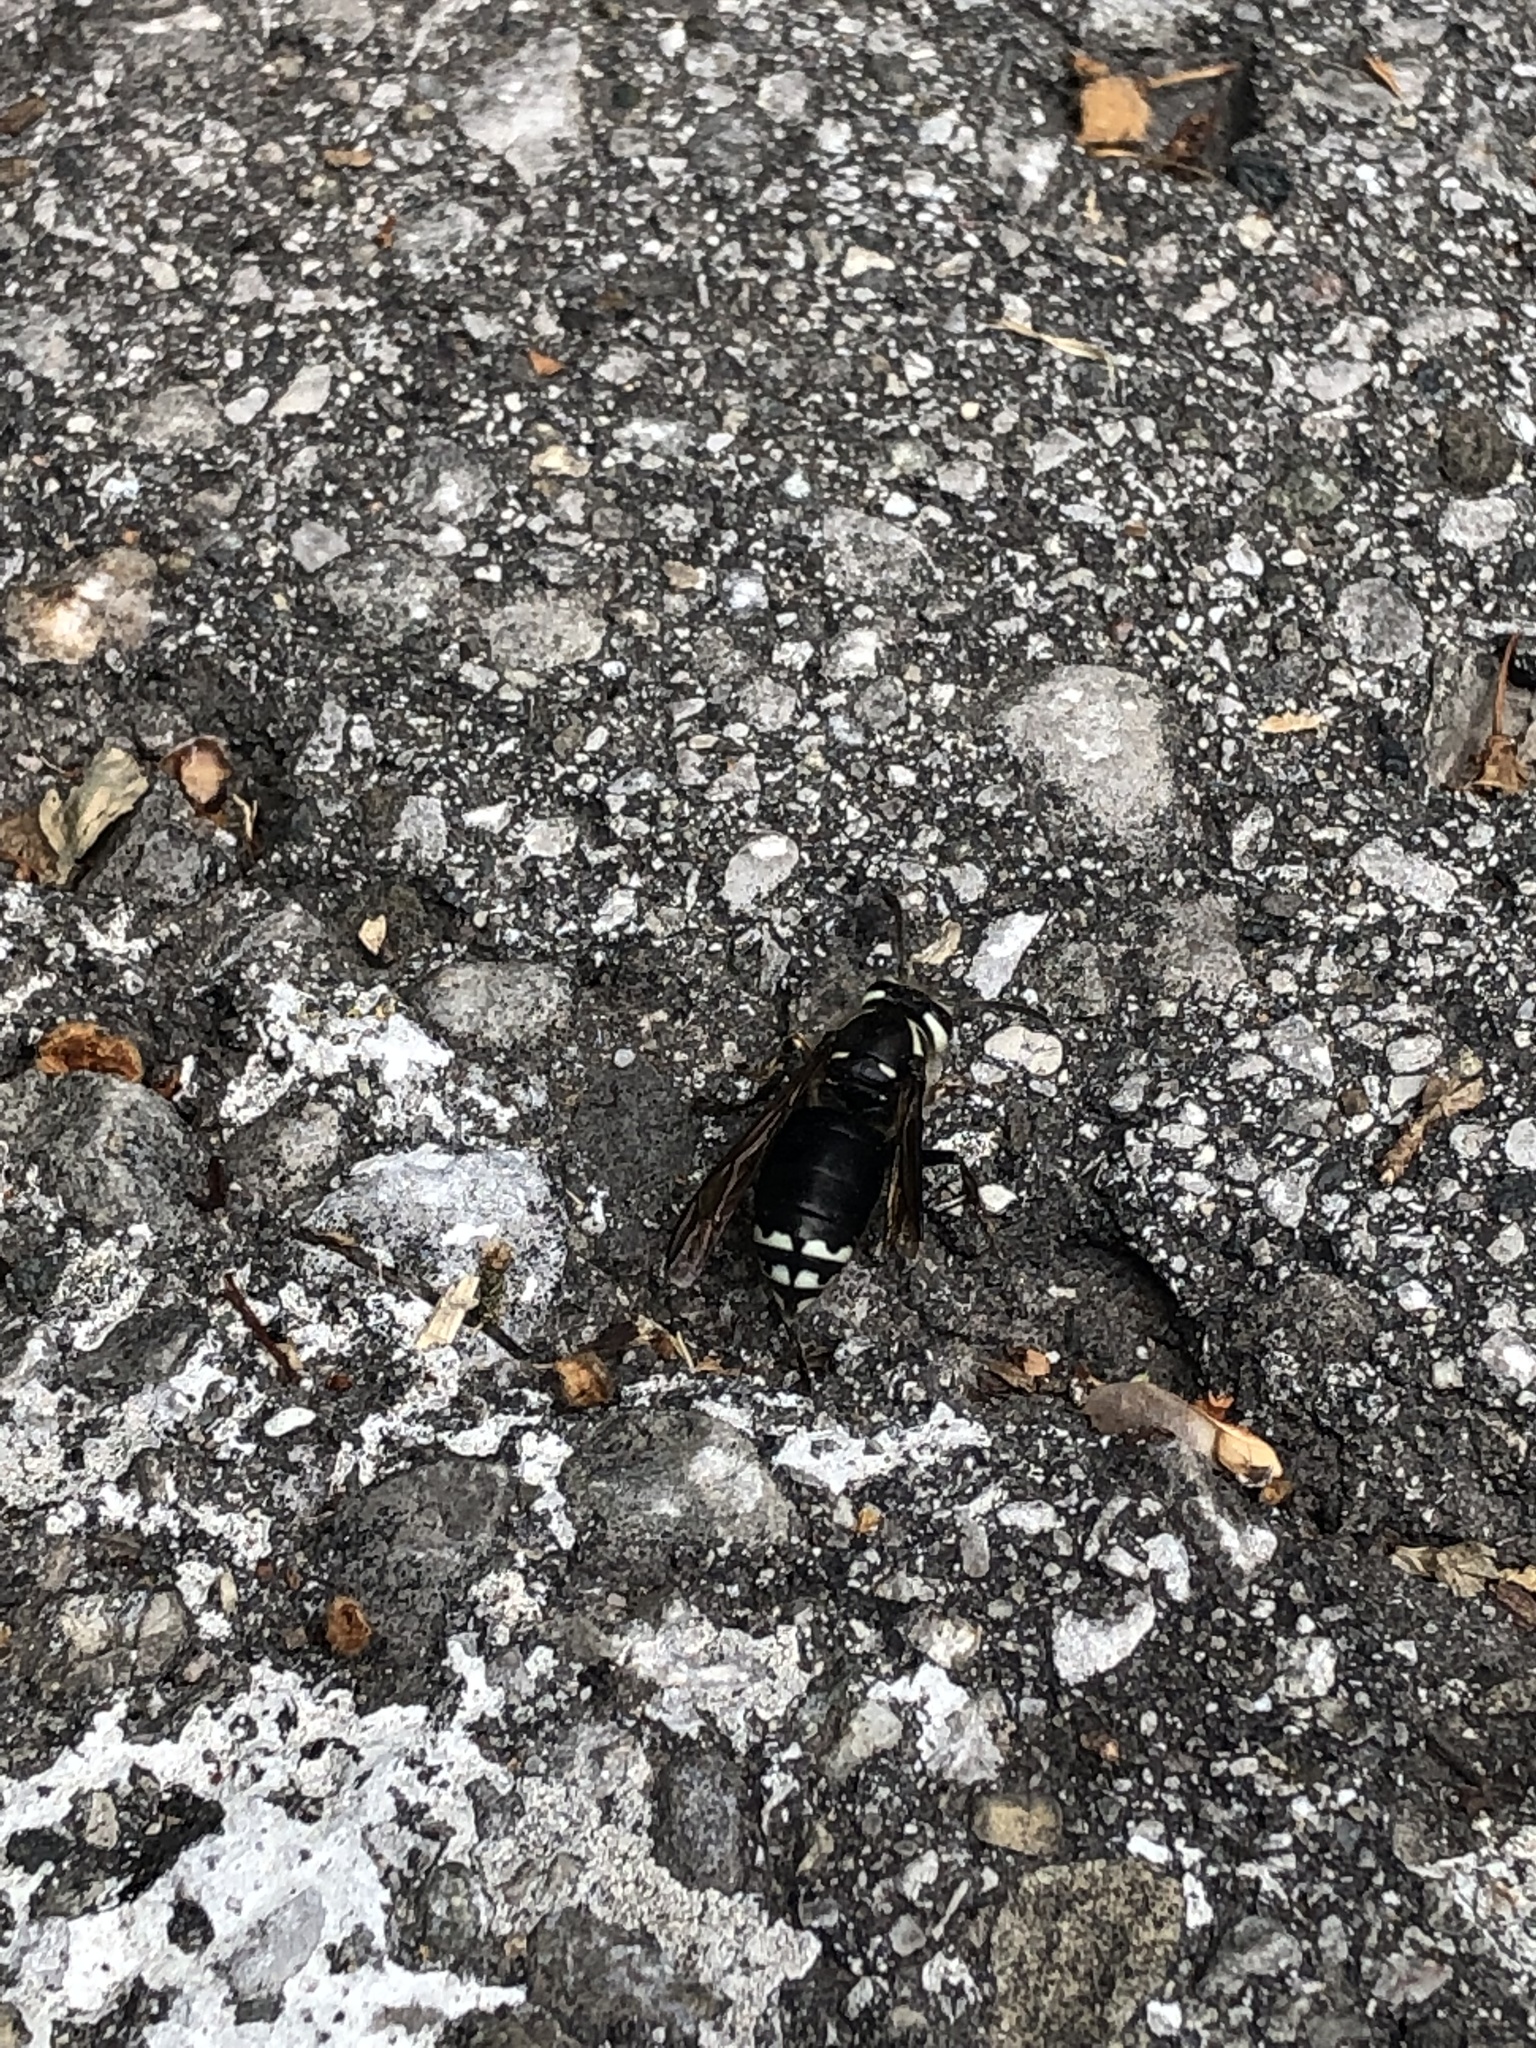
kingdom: Animalia
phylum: Arthropoda
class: Insecta
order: Hymenoptera
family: Vespidae
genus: Dolichovespula
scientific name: Dolichovespula maculata
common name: Bald-faced hornet
